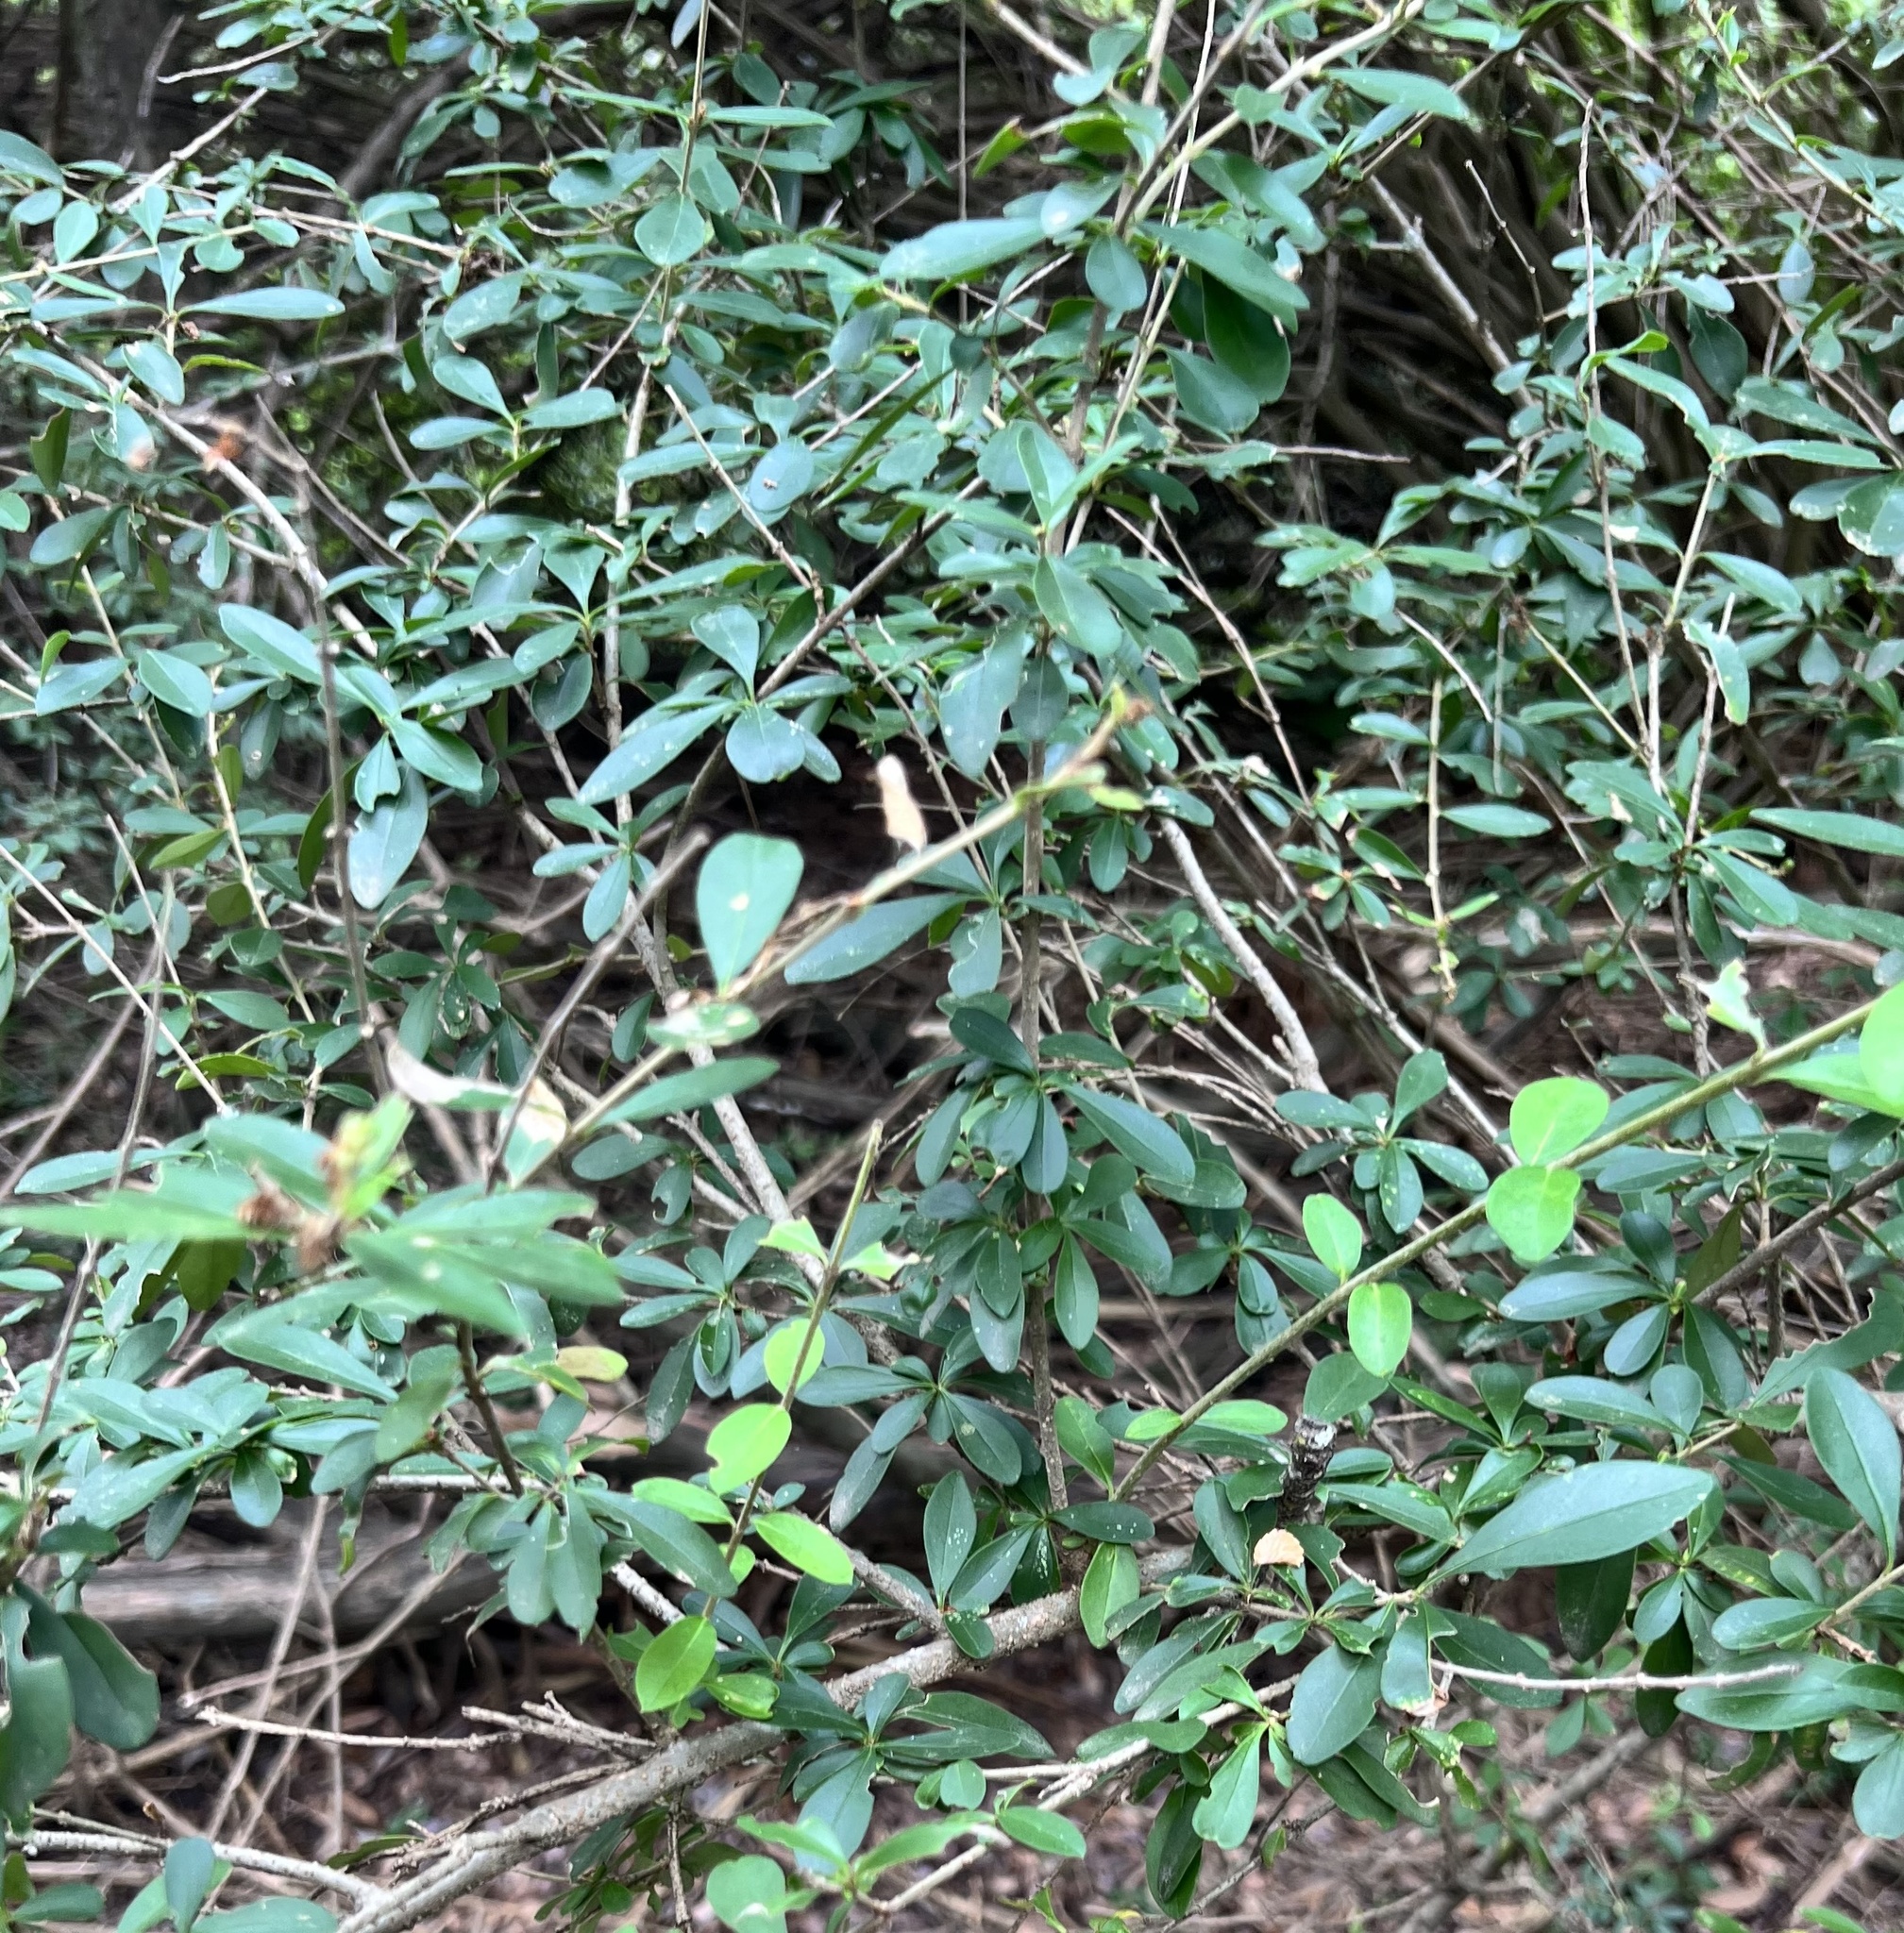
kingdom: Plantae
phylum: Tracheophyta
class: Magnoliopsida
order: Lamiales
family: Oleaceae
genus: Ligustrum
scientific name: Ligustrum quihoui
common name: Waxyleaf privet
